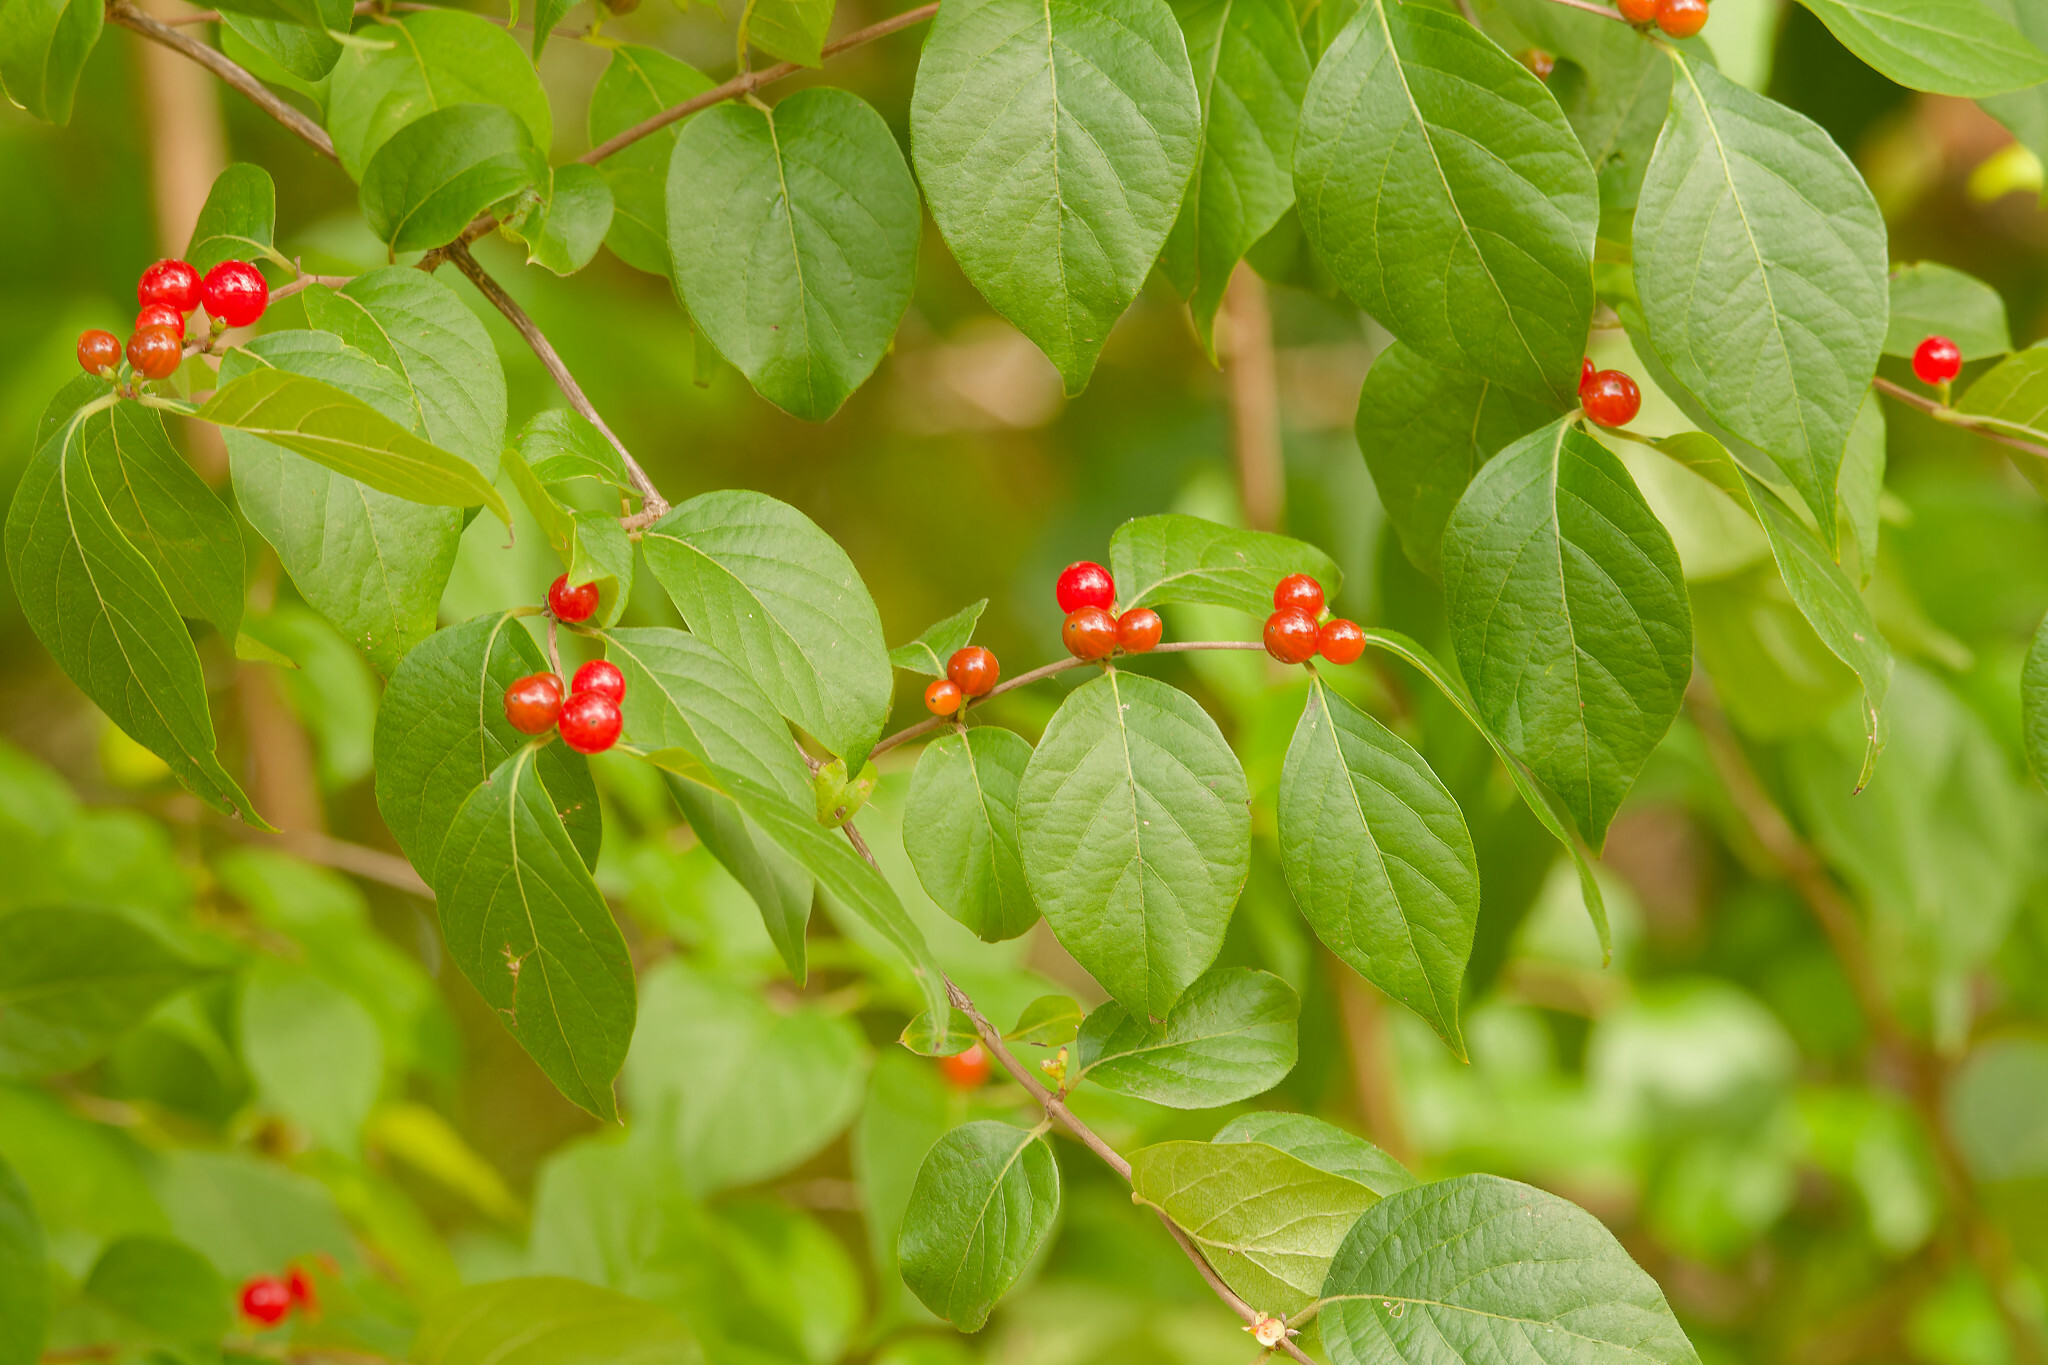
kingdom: Plantae
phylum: Tracheophyta
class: Magnoliopsida
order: Dipsacales
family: Caprifoliaceae
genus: Lonicera
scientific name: Lonicera maackii
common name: Amur honeysuckle
